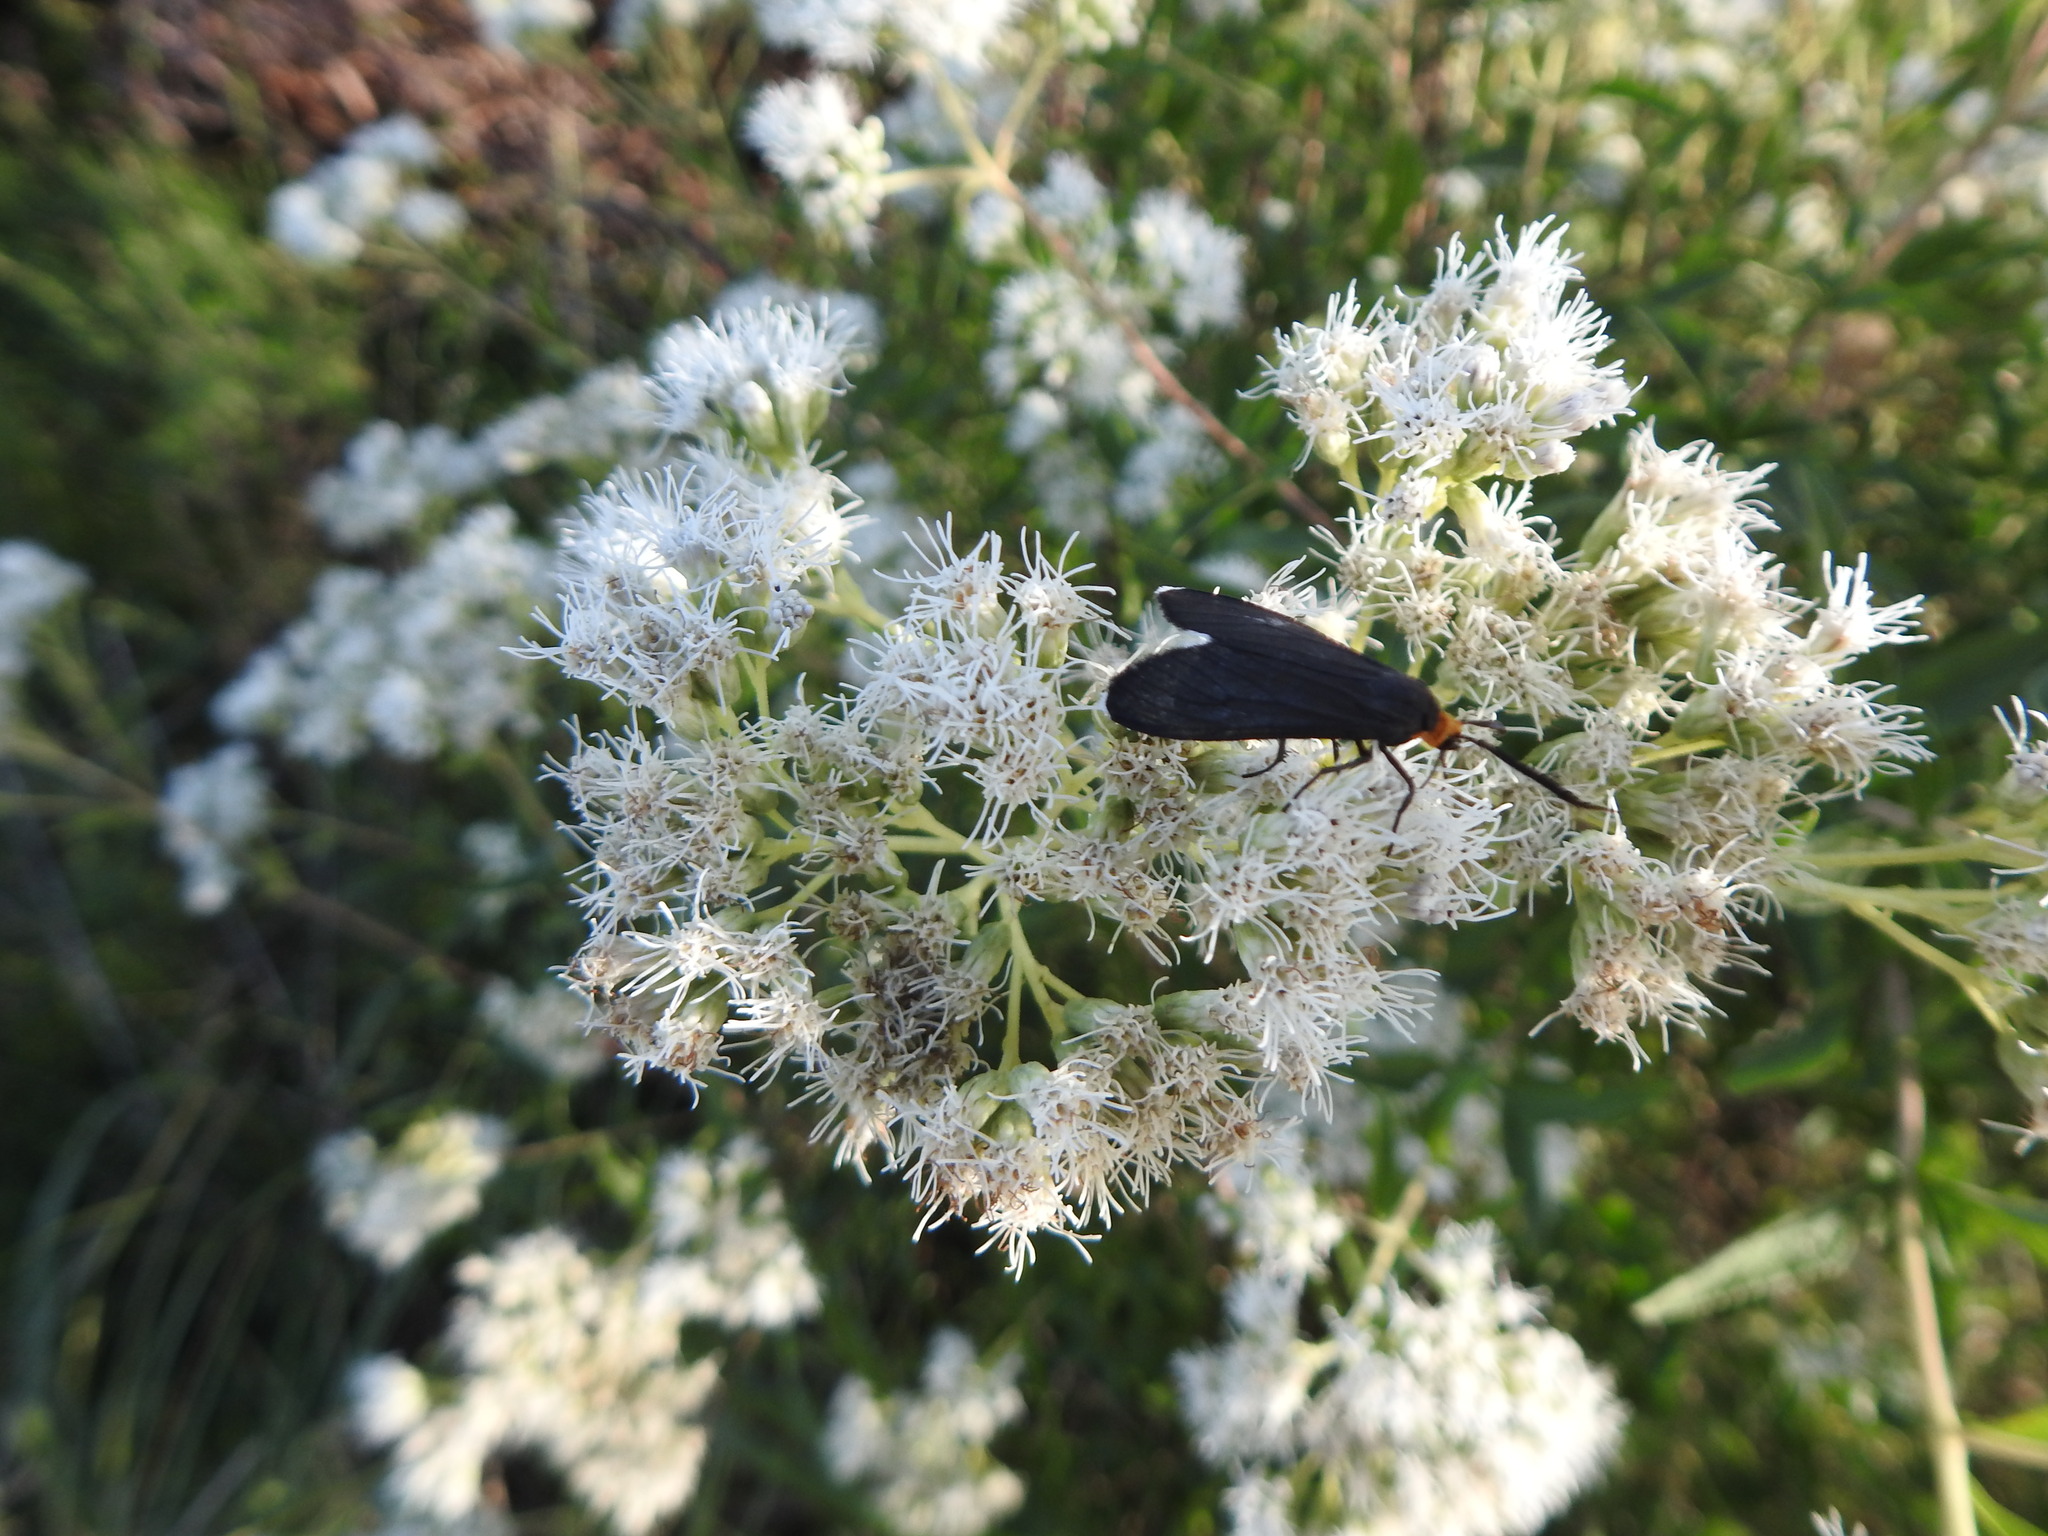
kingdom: Animalia
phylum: Arthropoda
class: Insecta
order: Lepidoptera
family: Erebidae
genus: Ctenucha
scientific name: Ctenucha rubriceps
